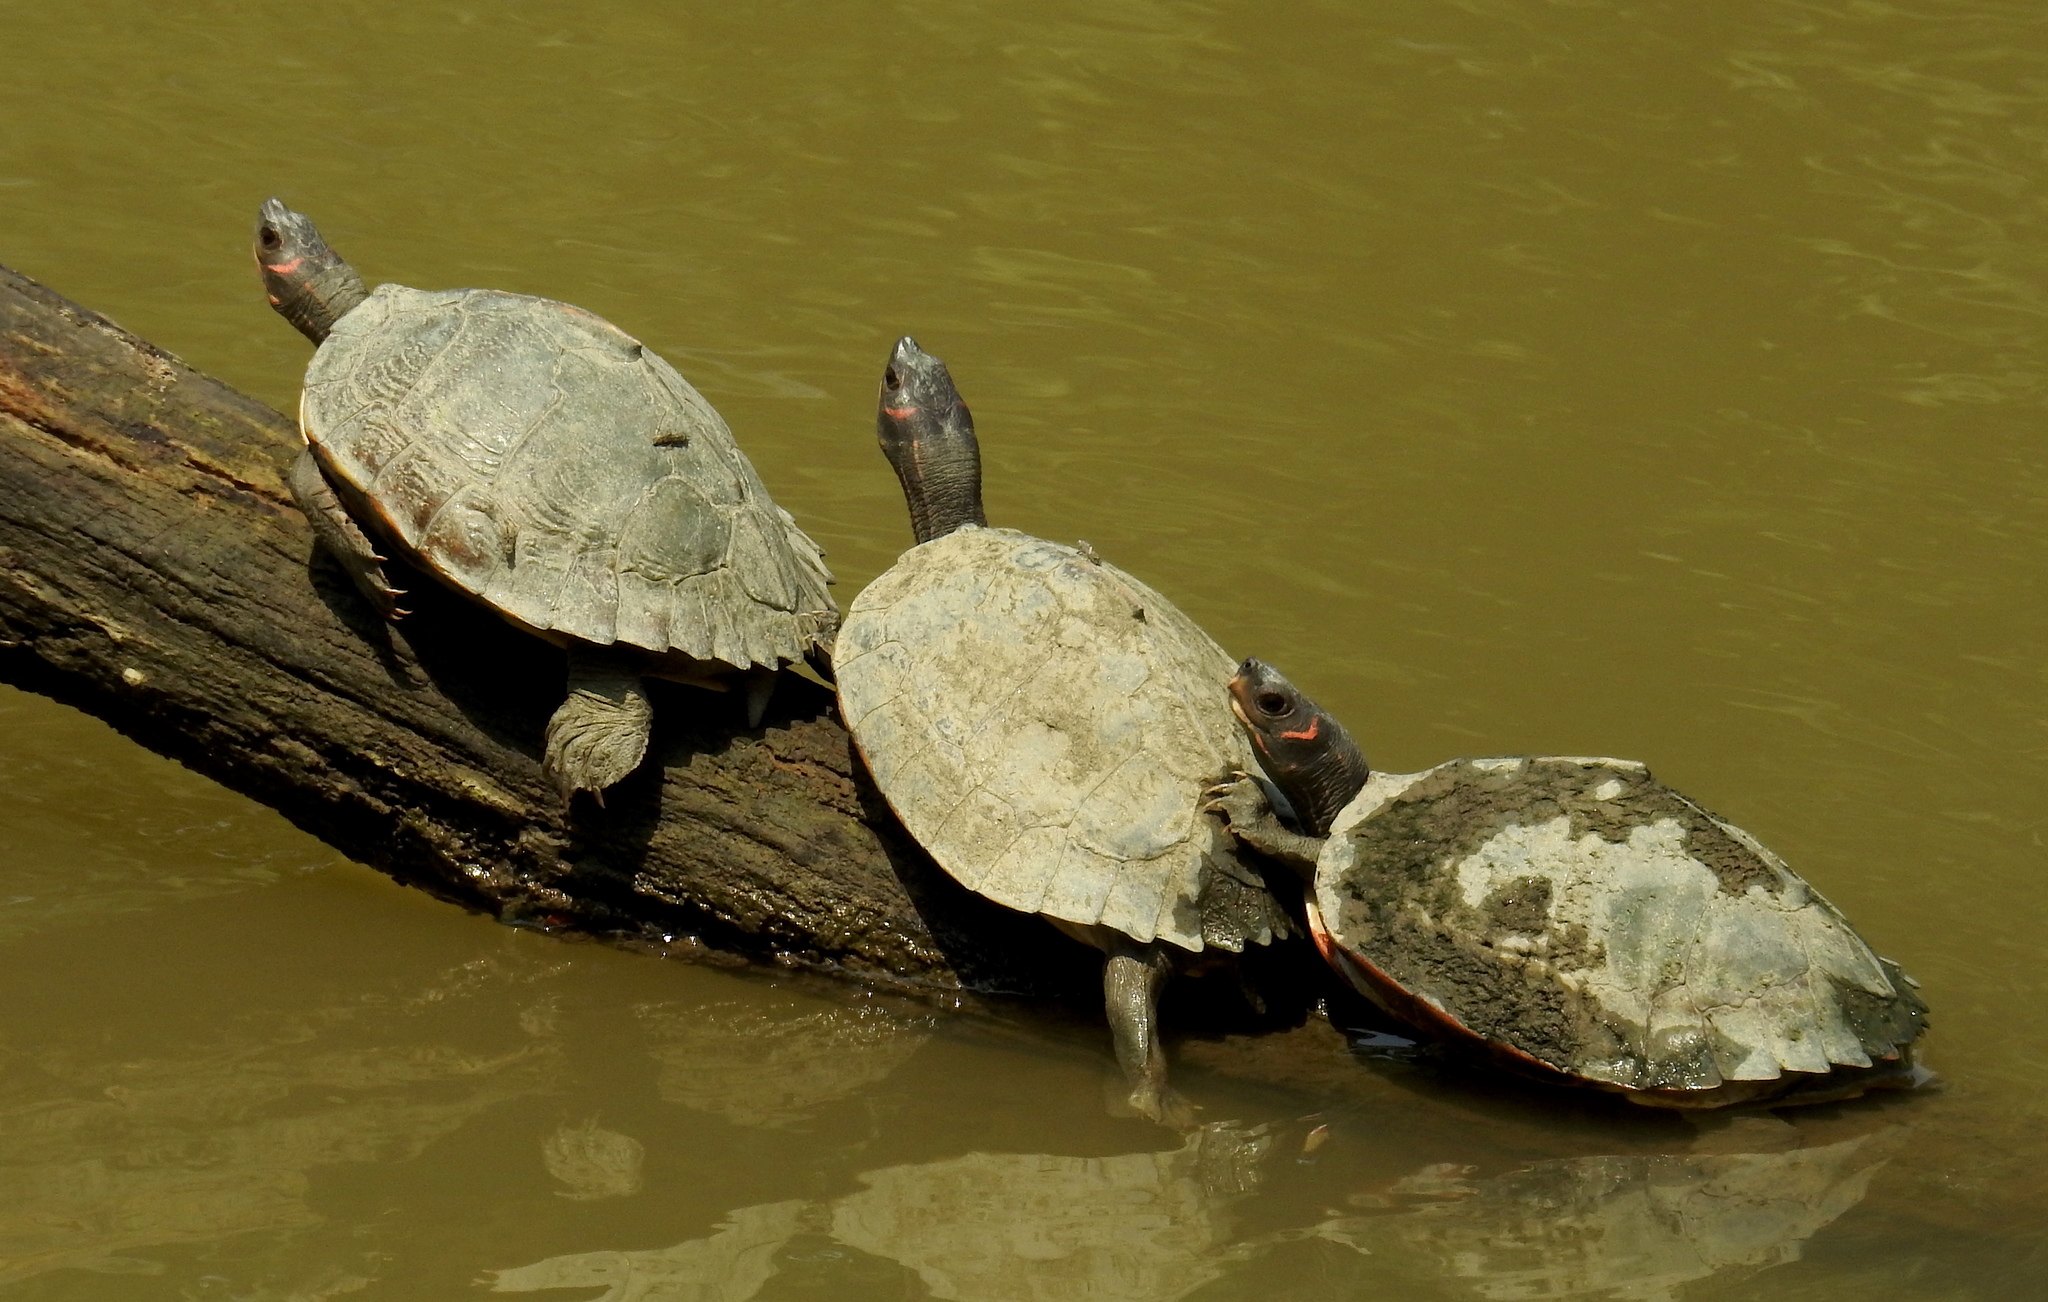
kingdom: Animalia
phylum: Chordata
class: Testudines
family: Geoemydidae
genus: Pangshura
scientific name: Pangshura sylhetensis
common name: Assam roofed turtle
